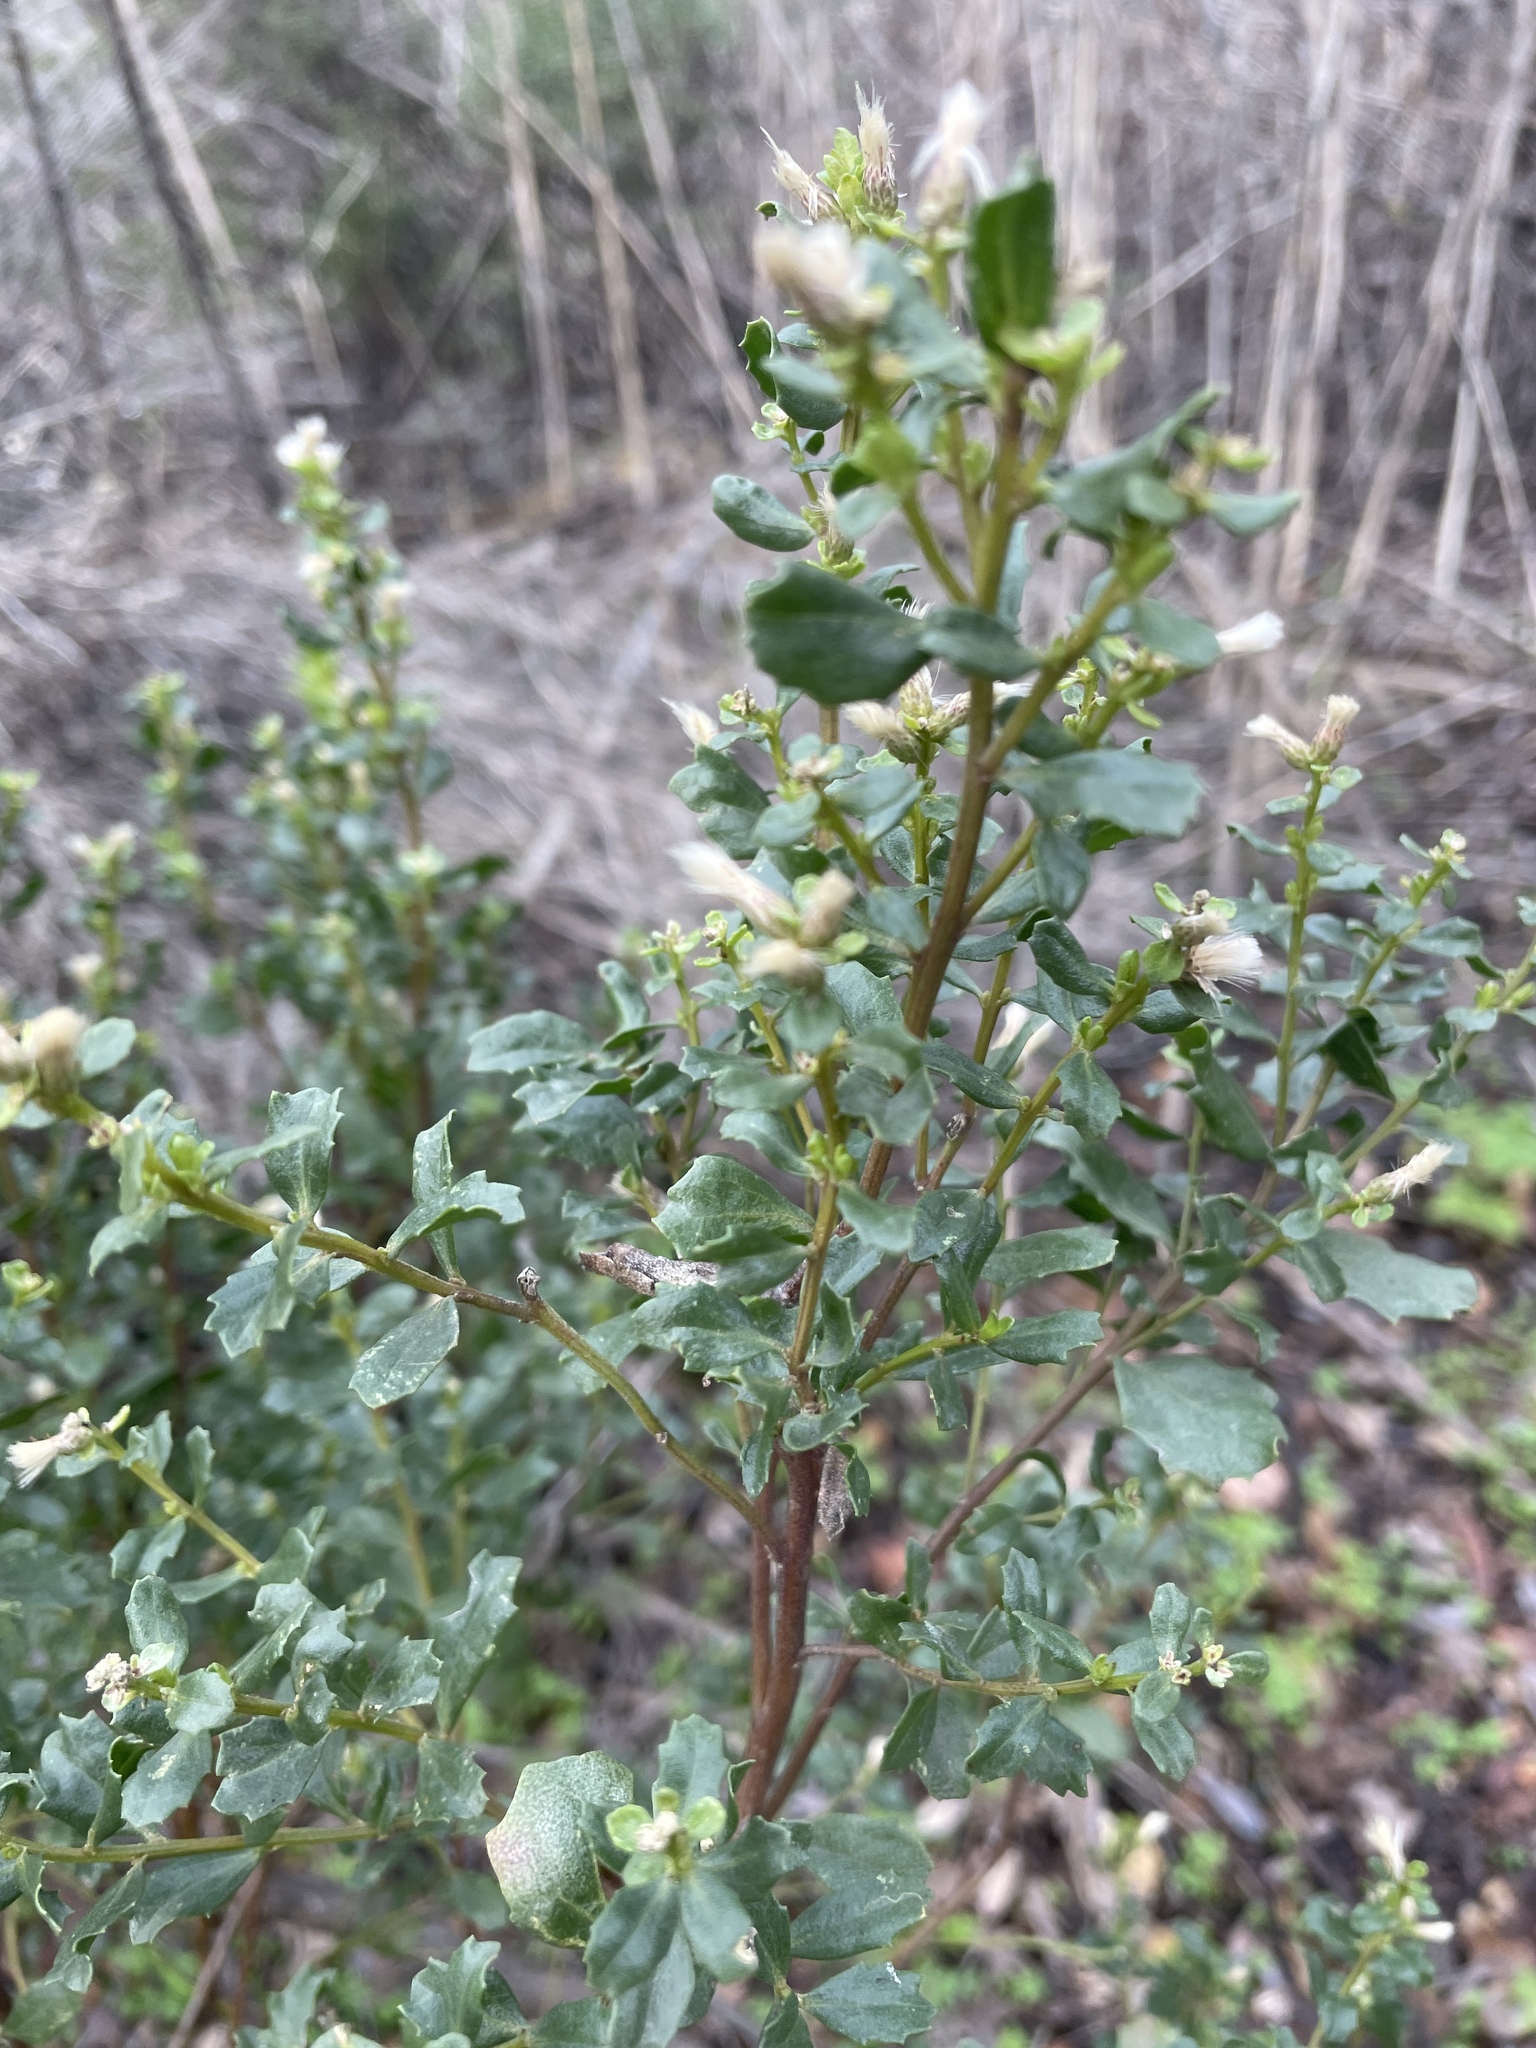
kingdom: Plantae
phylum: Tracheophyta
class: Magnoliopsida
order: Asterales
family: Asteraceae
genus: Baccharis
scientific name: Baccharis pilularis
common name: Coyotebrush
